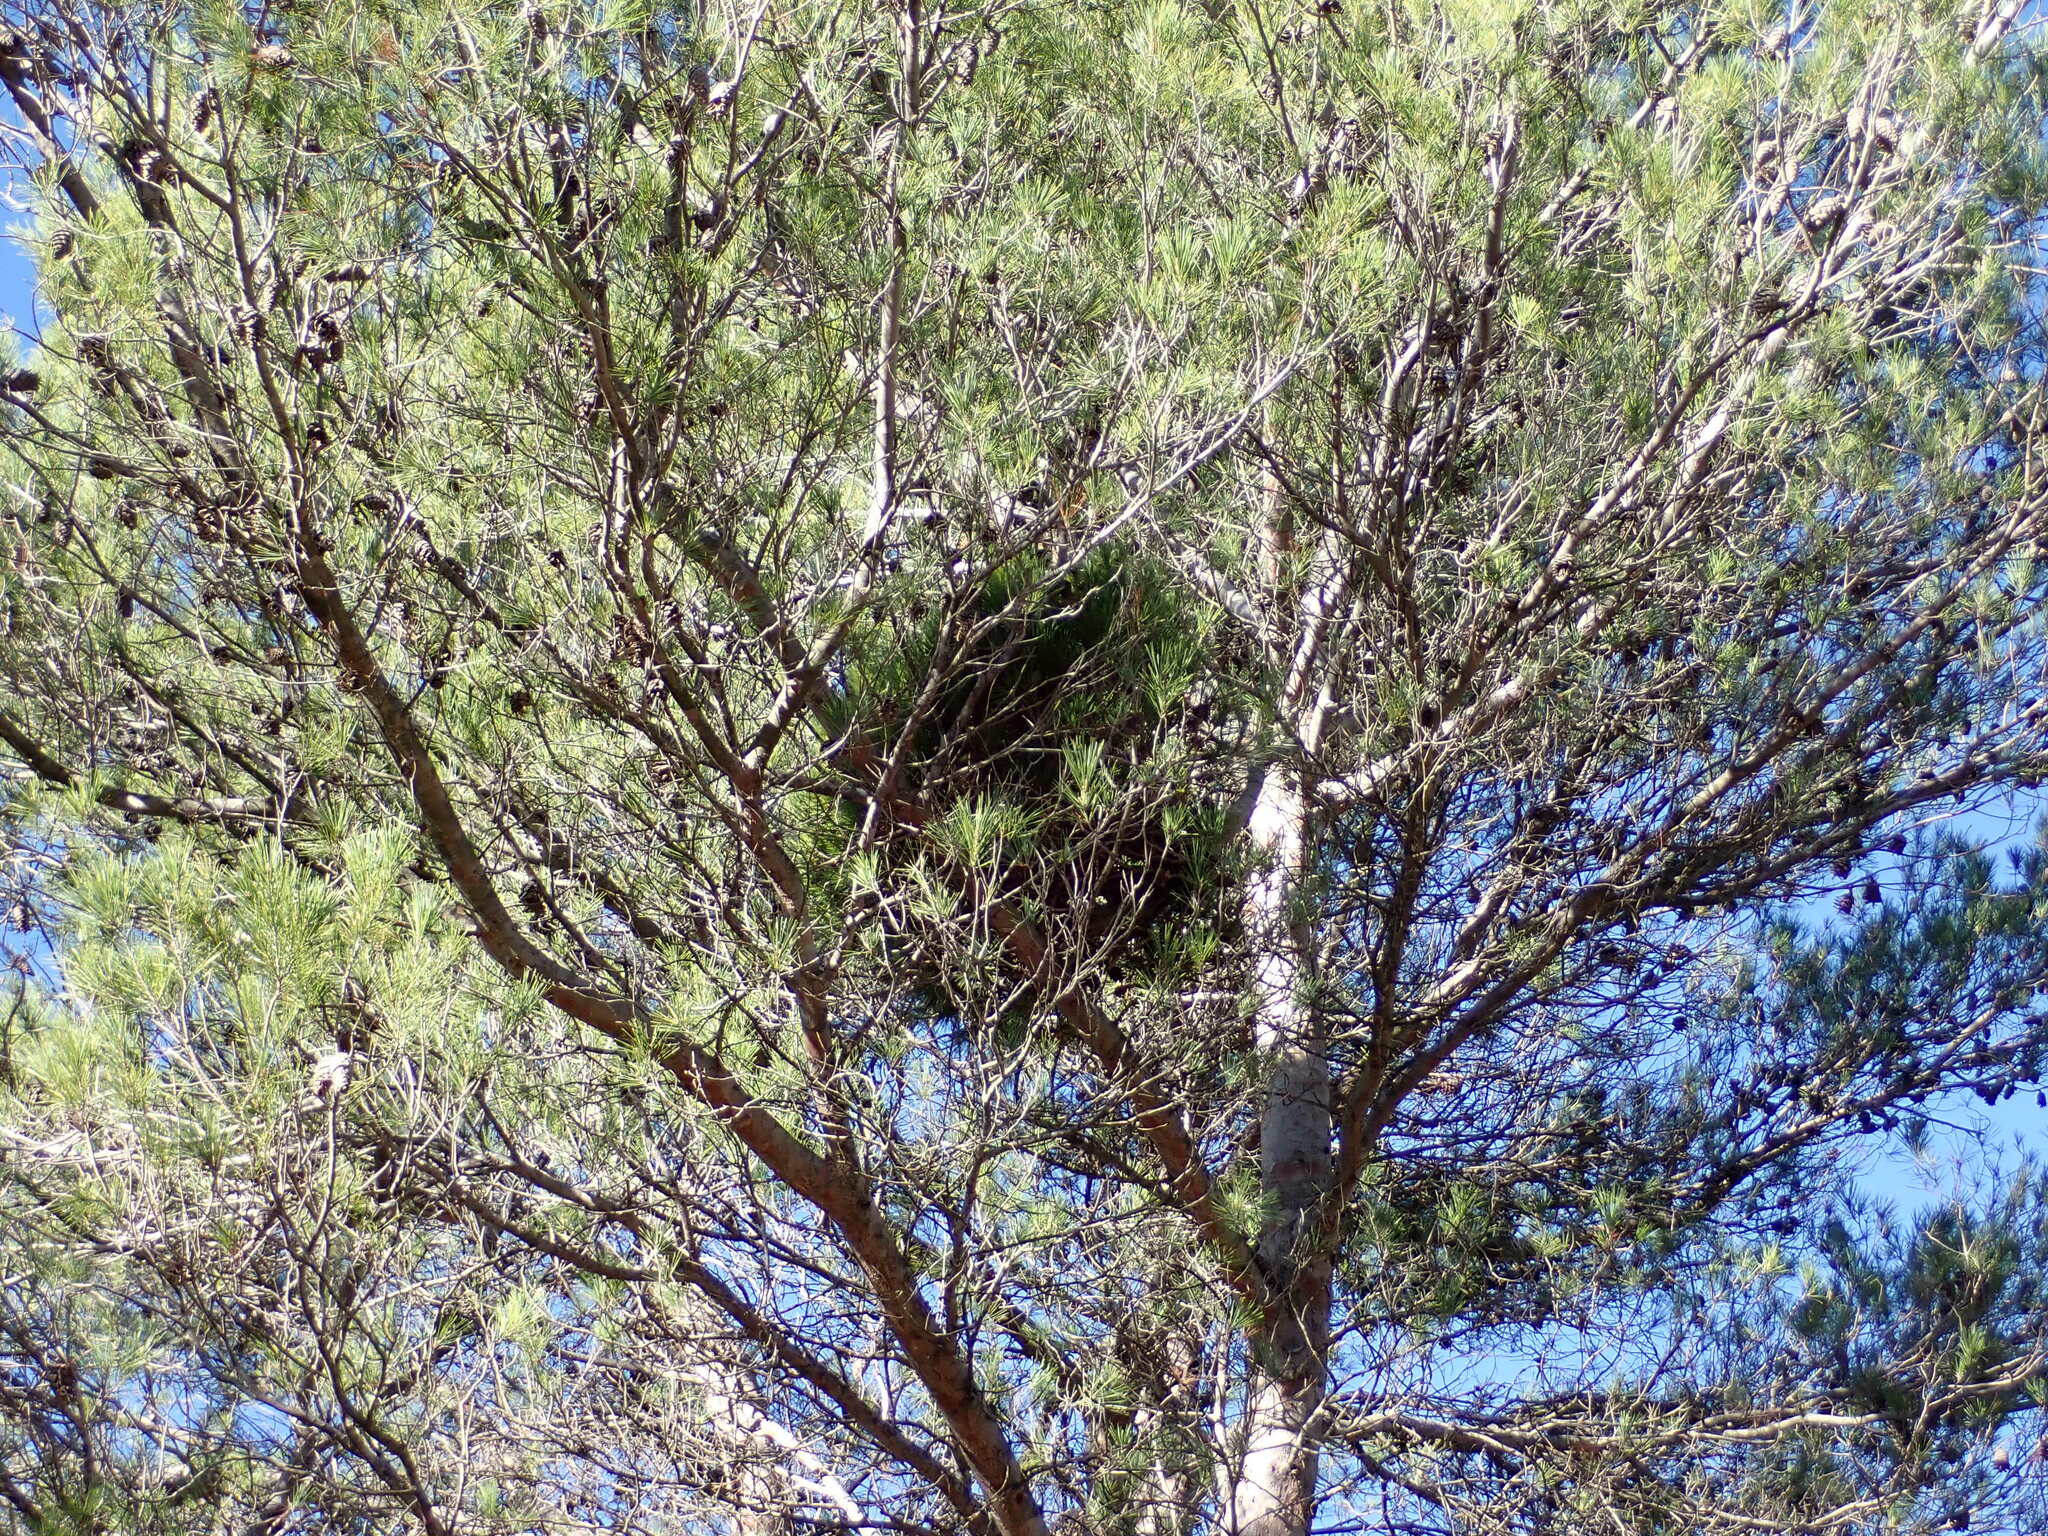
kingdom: Bacteria
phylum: Firmicutes
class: Bacilli
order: Acholeplasmatales
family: Acholeplasmataceae
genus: Phytoplasma
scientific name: Phytoplasma pini
